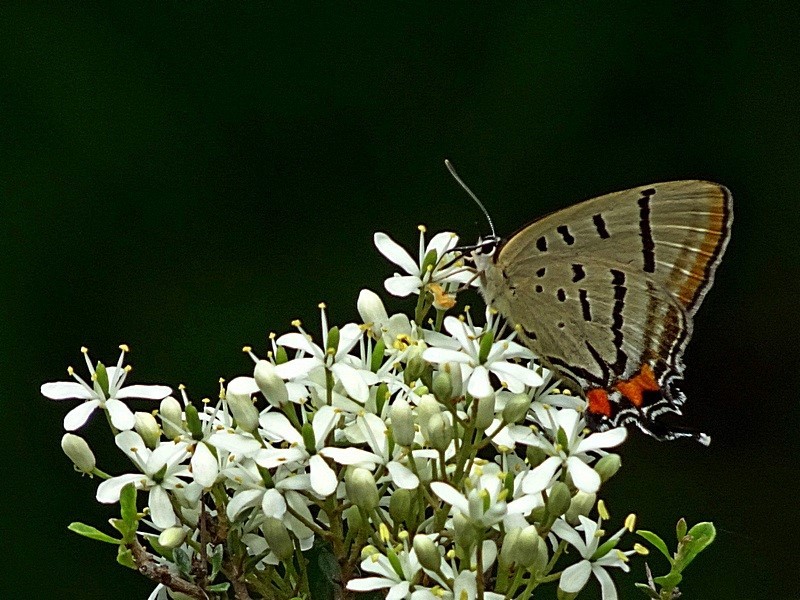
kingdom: Animalia
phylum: Arthropoda
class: Insecta
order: Lepidoptera
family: Lycaenidae
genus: Jalmenus
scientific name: Jalmenus evagoras
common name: Common imperial blue
